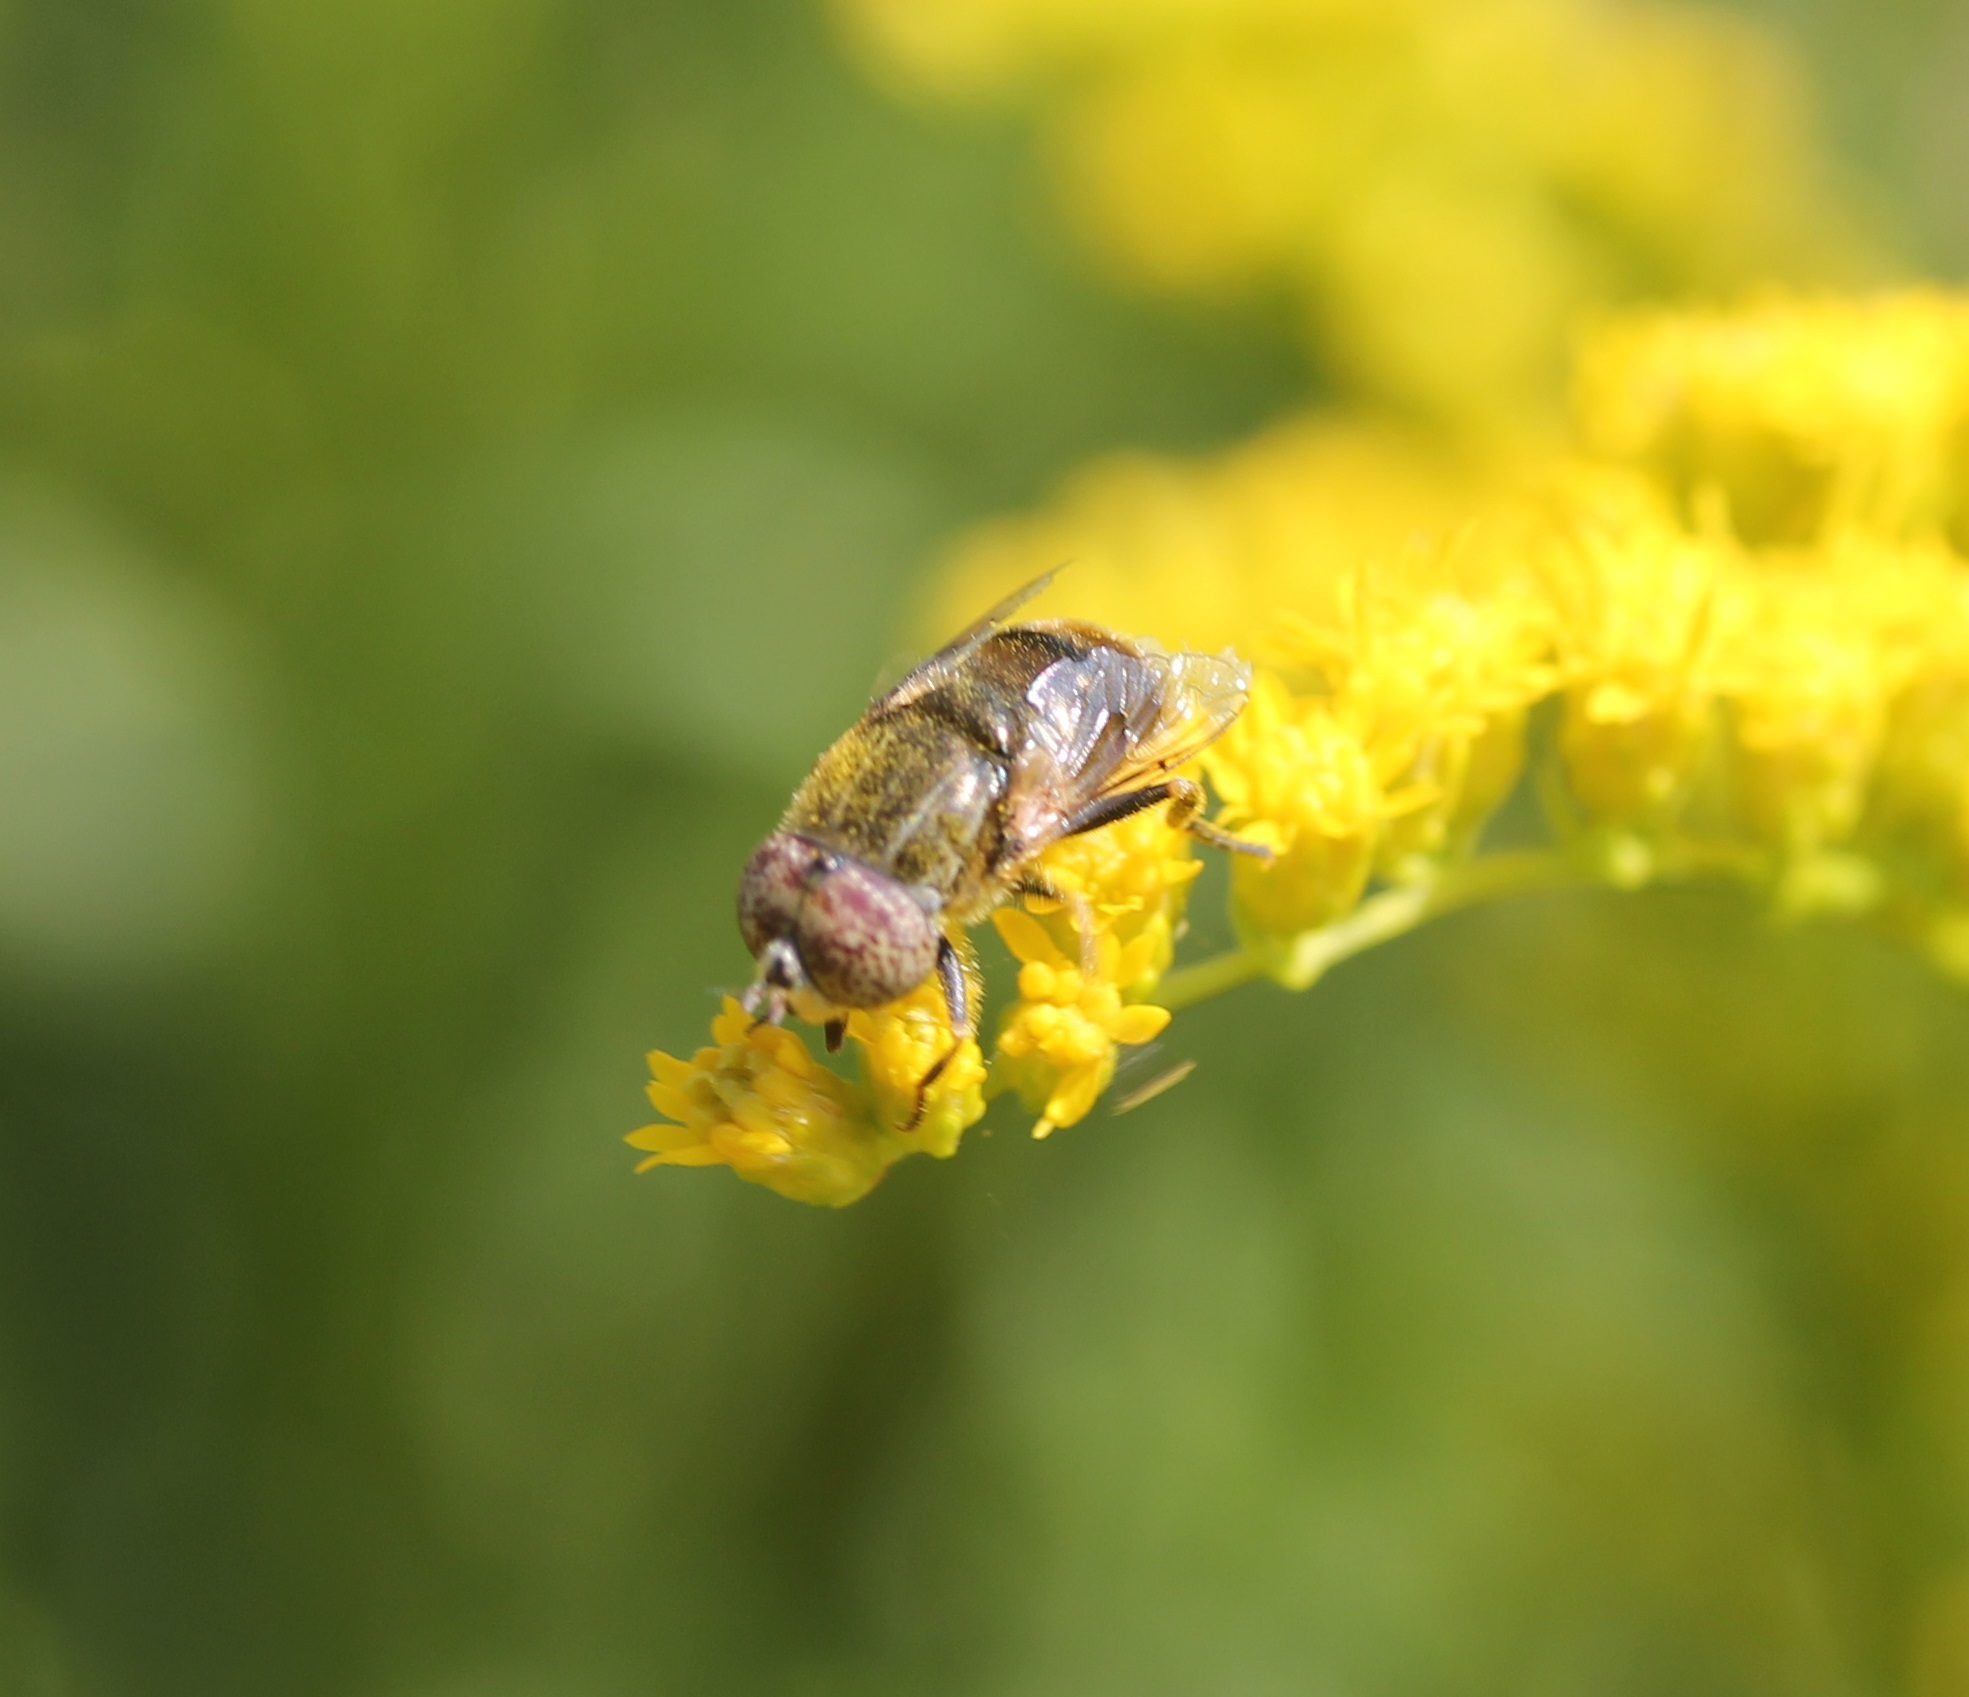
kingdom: Animalia
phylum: Arthropoda
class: Insecta
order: Diptera
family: Syrphidae
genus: Eristalinus
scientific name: Eristalinus aeneus
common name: Syrphid fly
